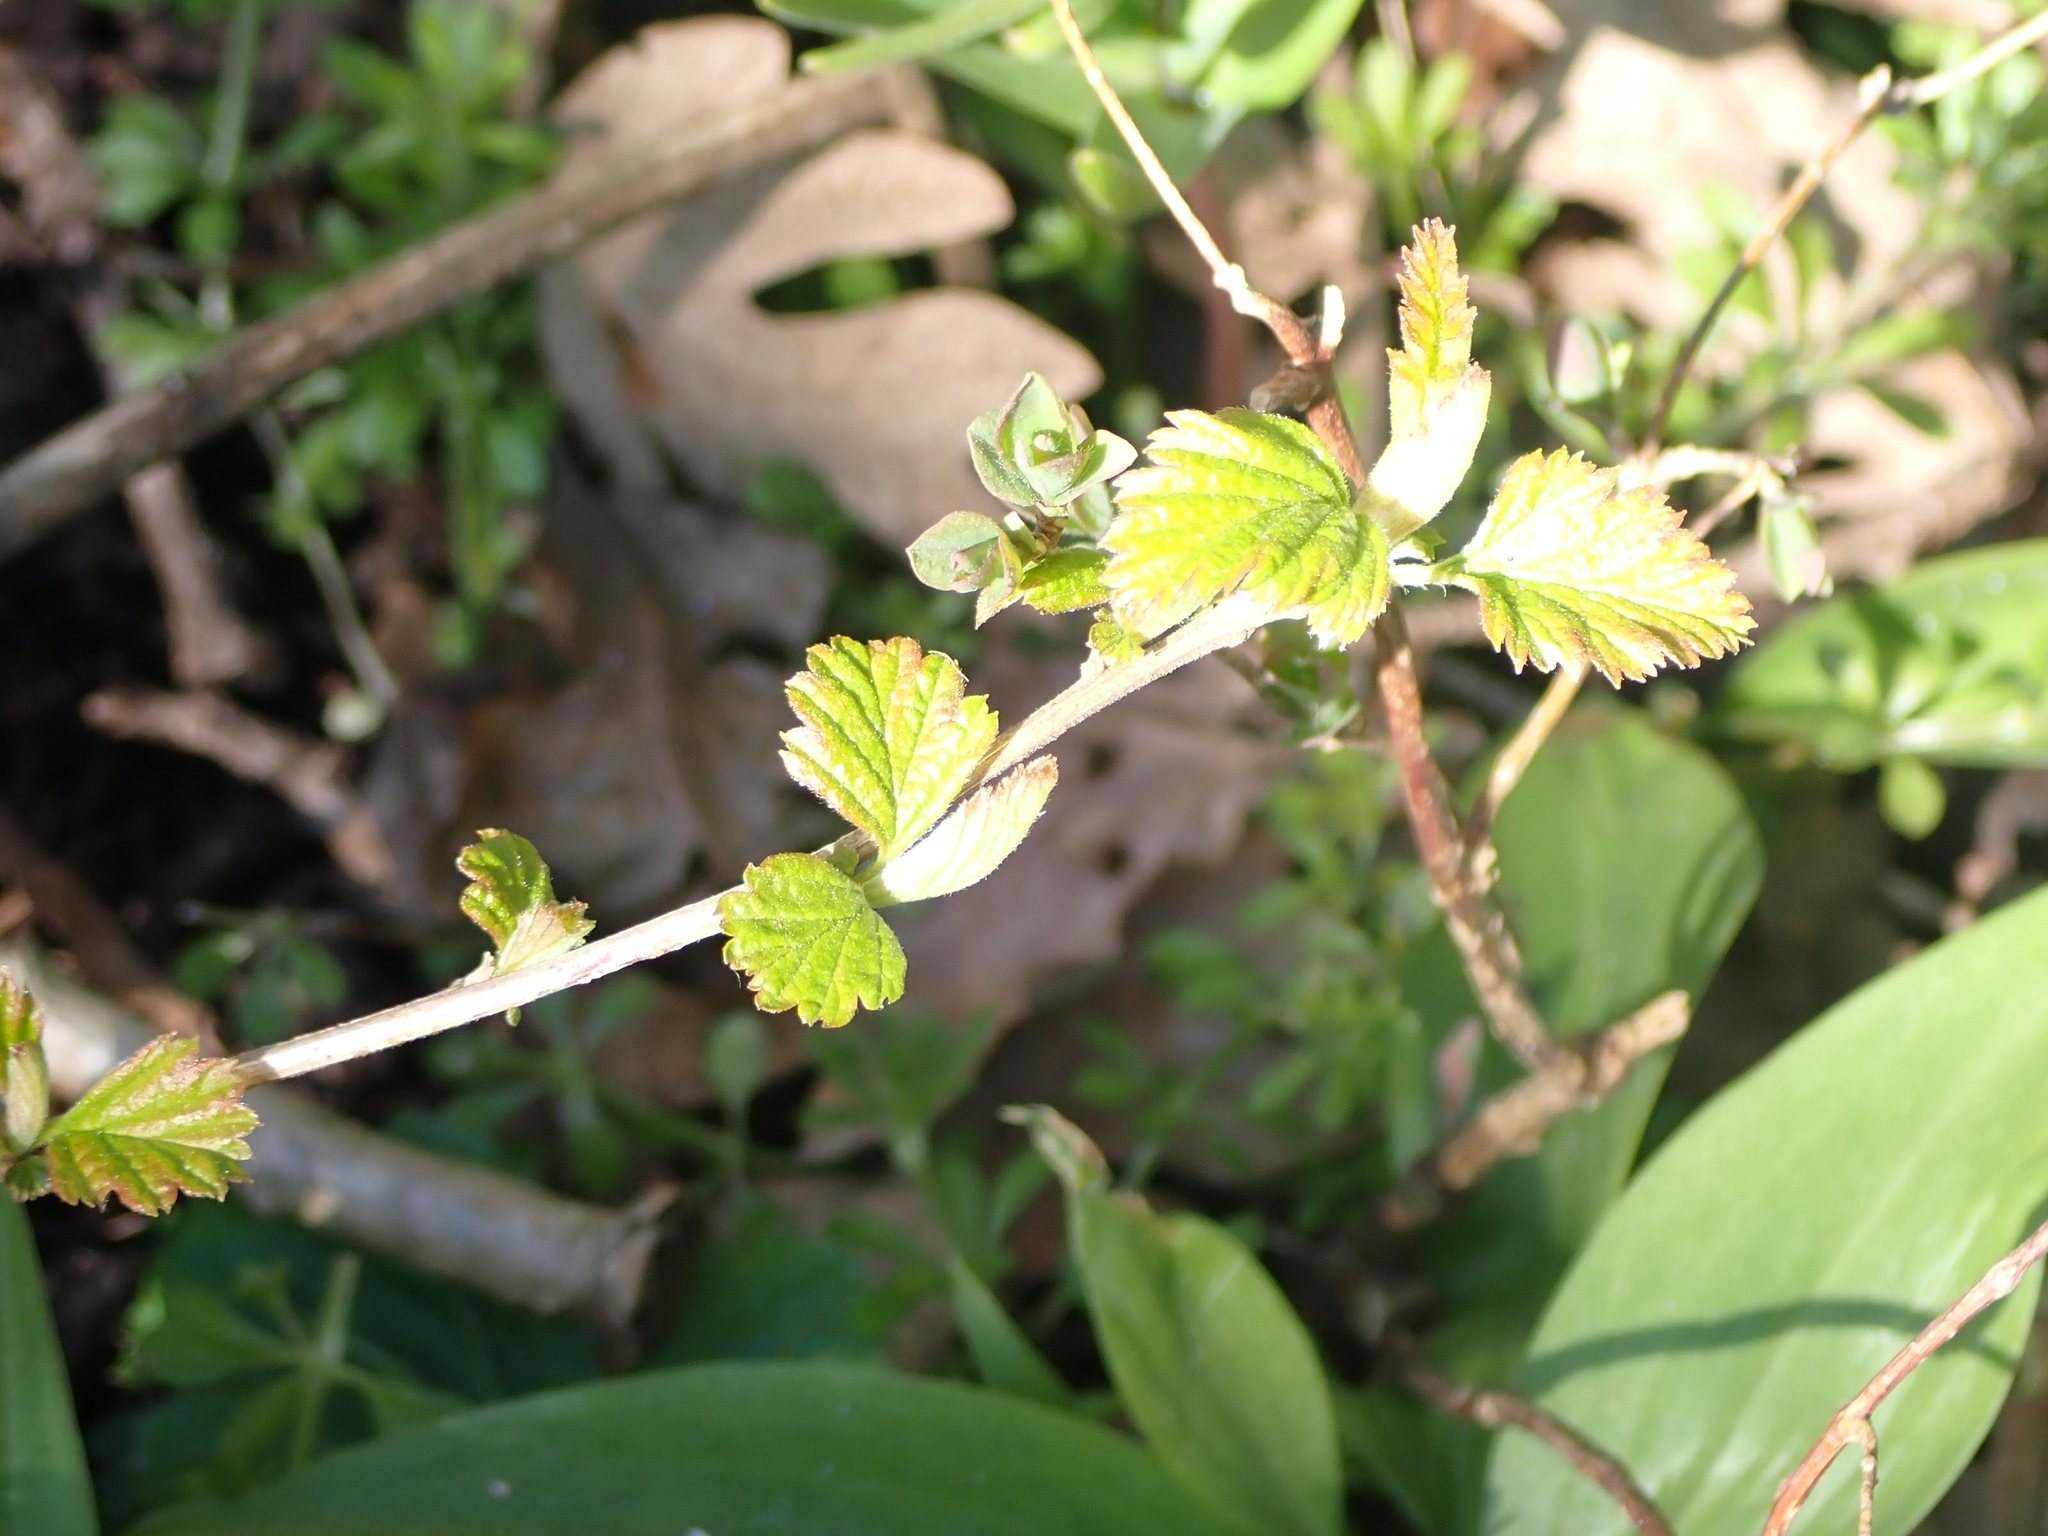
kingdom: Plantae
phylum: Tracheophyta
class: Magnoliopsida
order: Rosales
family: Rosaceae
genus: Holodiscus
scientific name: Holodiscus discolor
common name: Oceanspray
